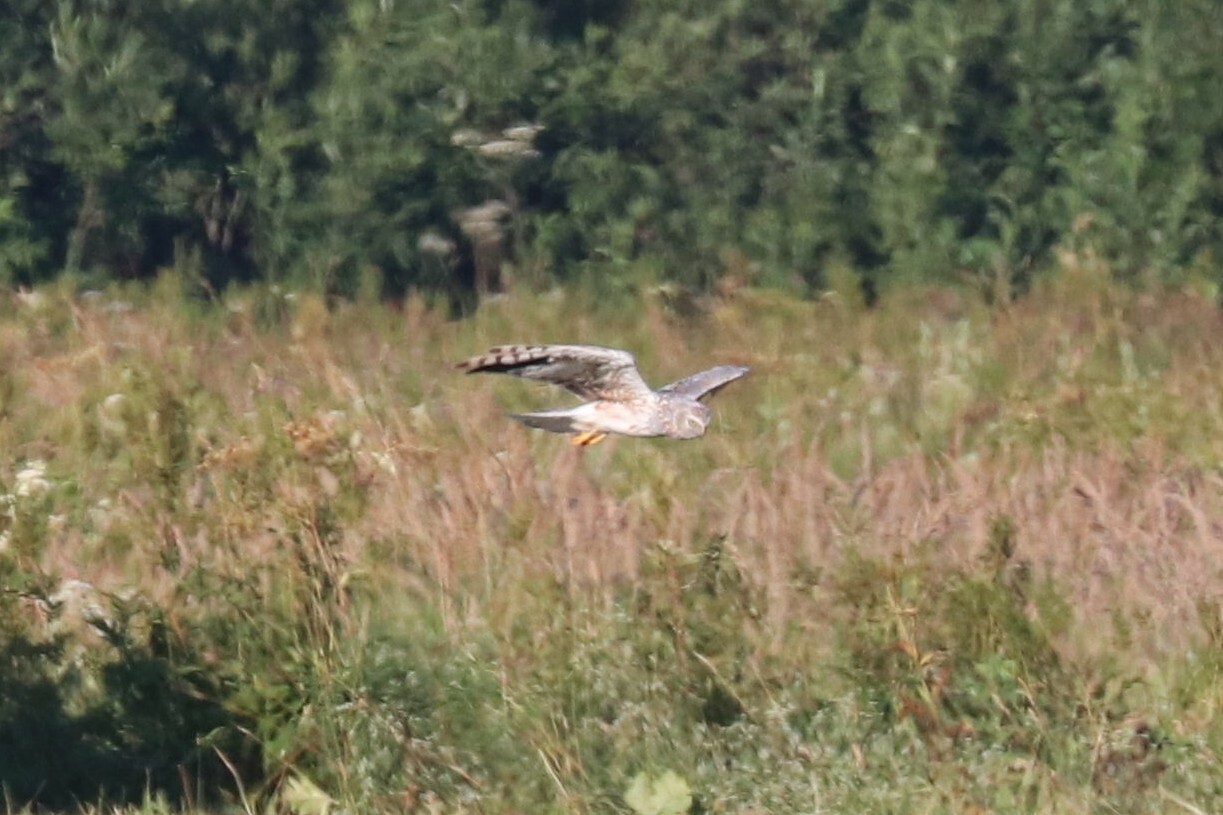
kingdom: Animalia
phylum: Chordata
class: Aves
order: Accipitriformes
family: Accipitridae
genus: Circus
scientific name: Circus cyaneus
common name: Hen harrier
